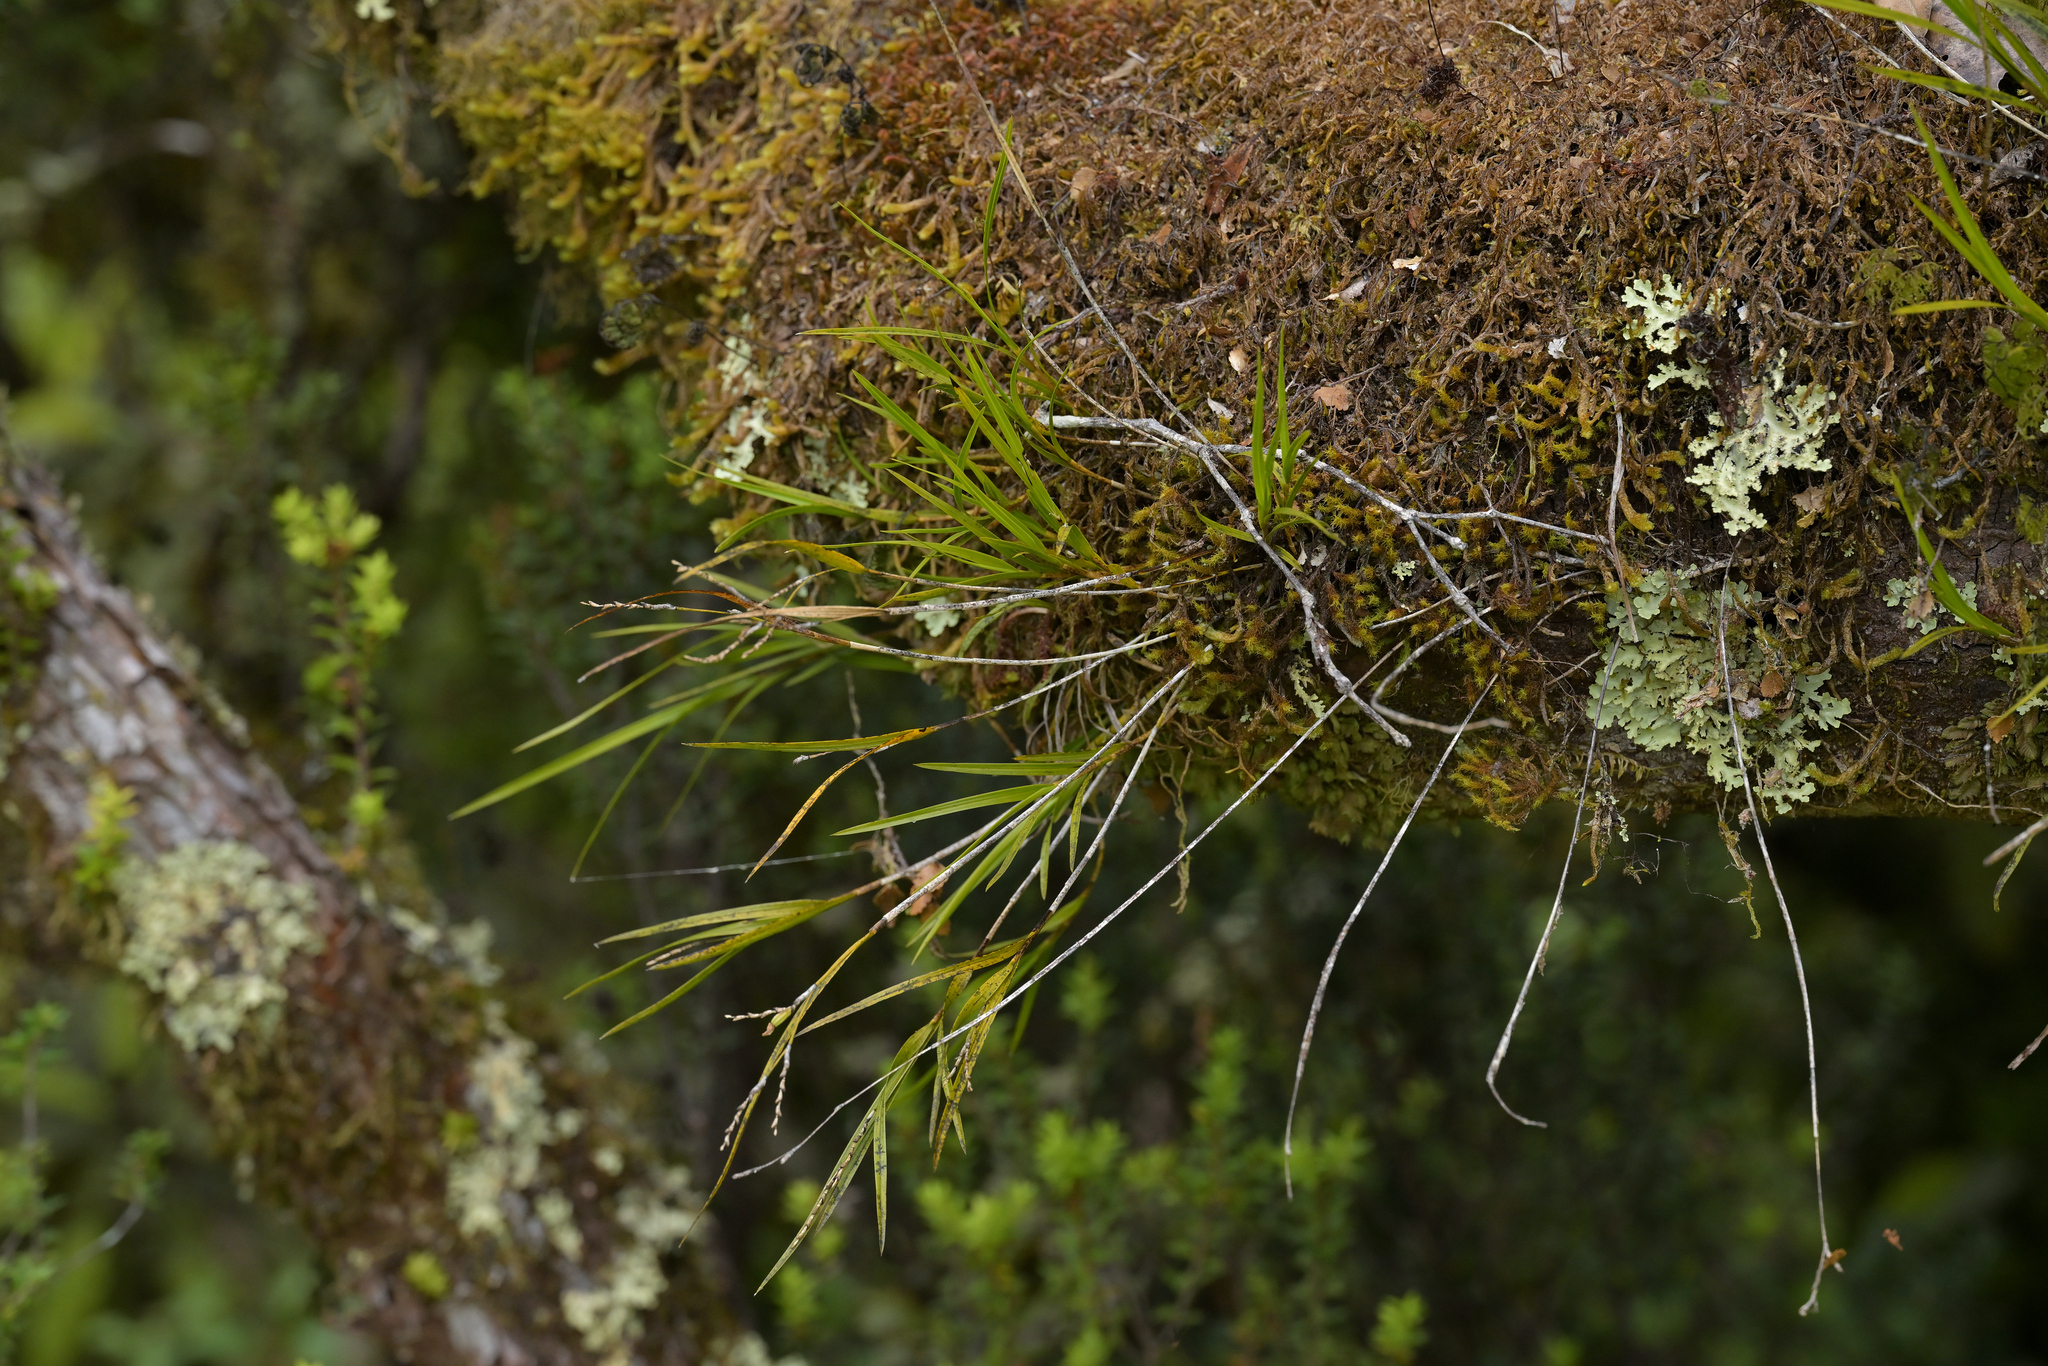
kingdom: Plantae
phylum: Tracheophyta
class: Liliopsida
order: Asparagales
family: Orchidaceae
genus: Earina
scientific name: Earina mucronata
